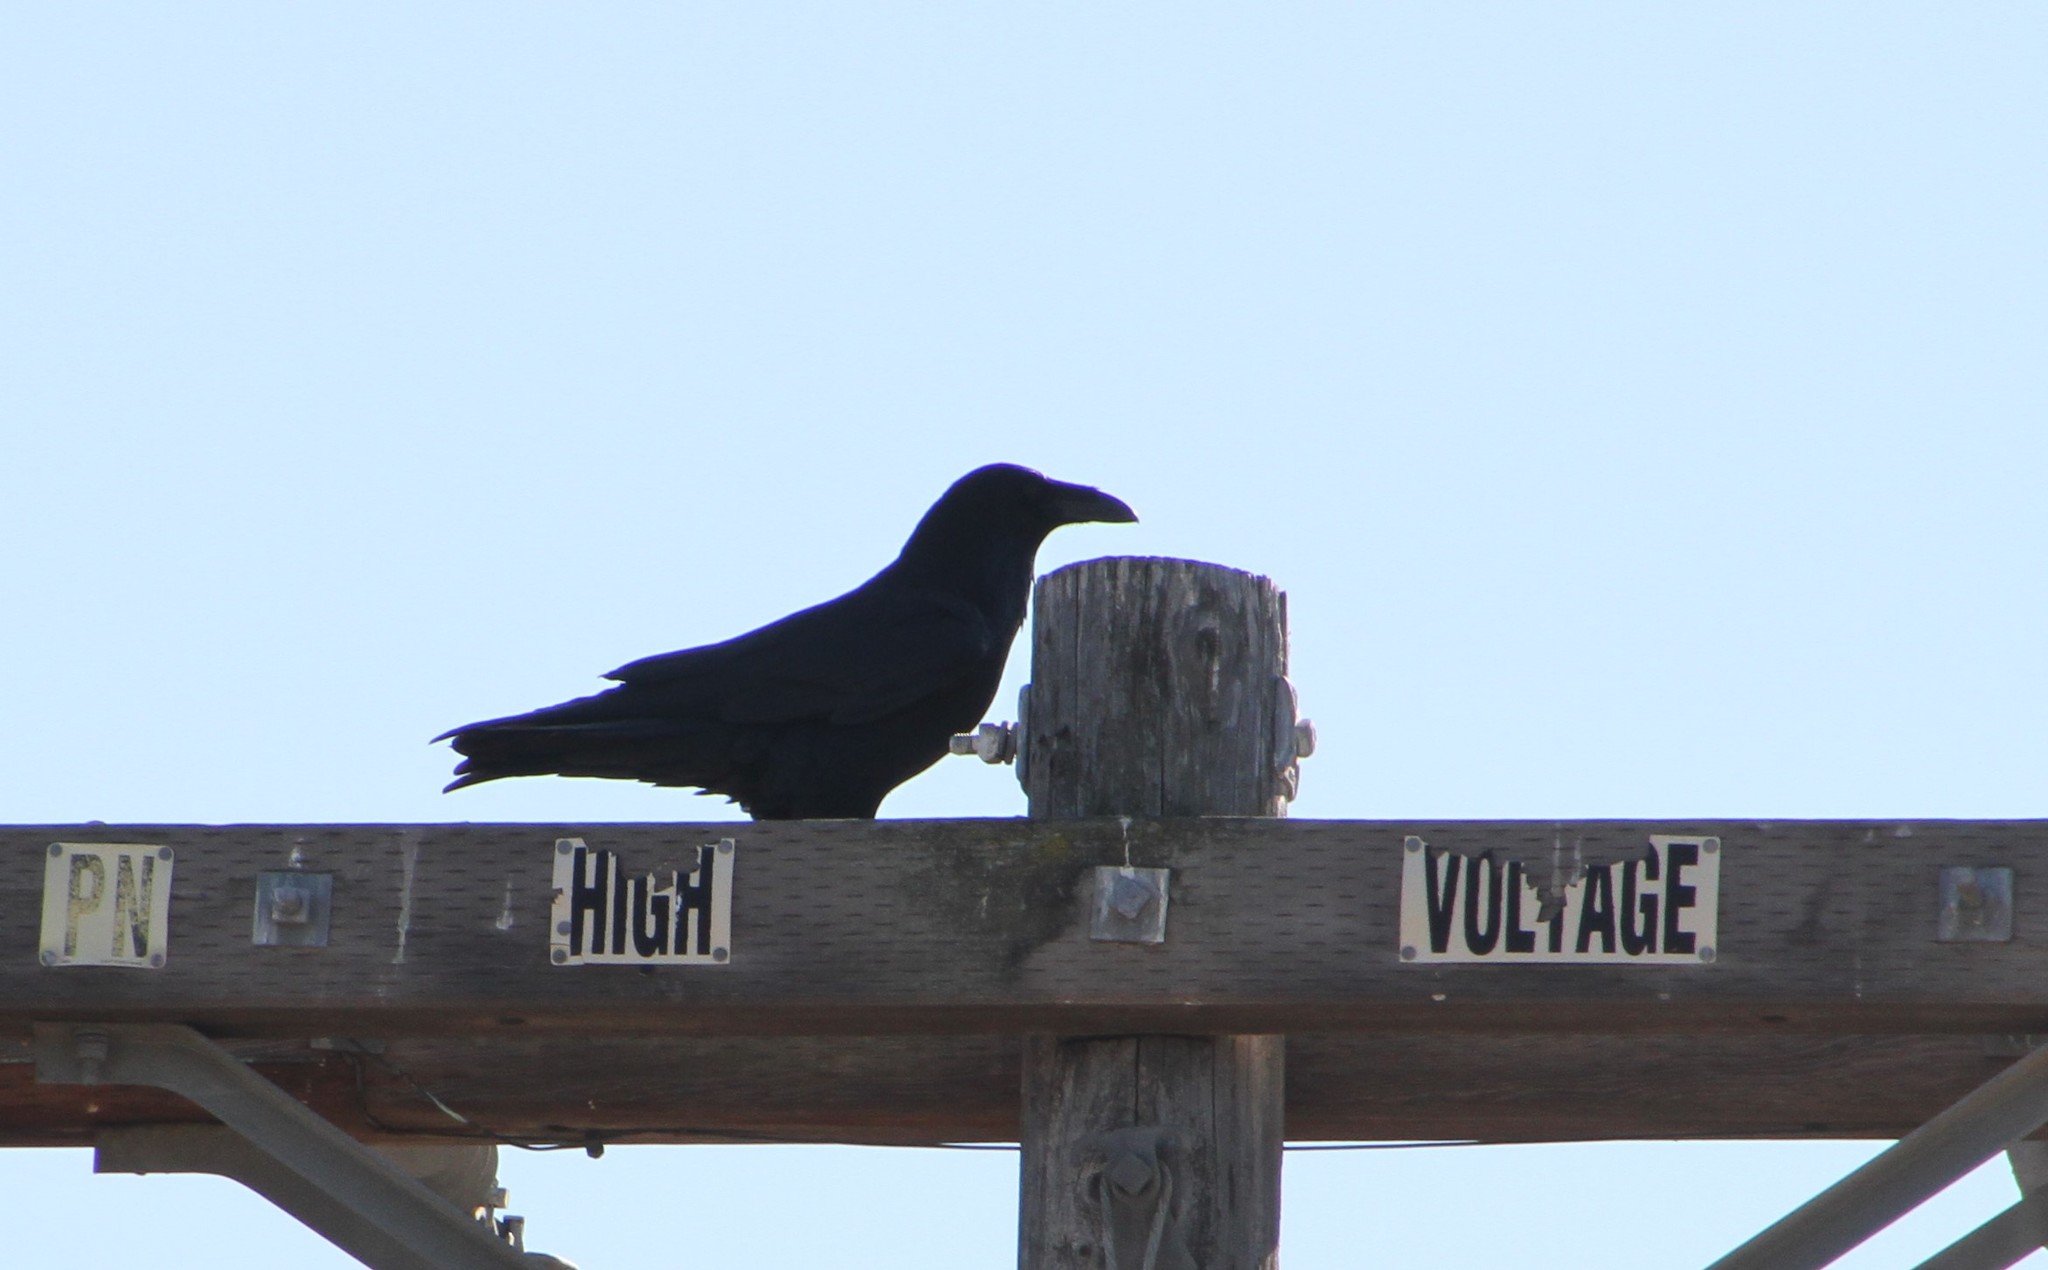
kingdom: Animalia
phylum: Chordata
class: Aves
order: Passeriformes
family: Corvidae
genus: Corvus
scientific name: Corvus corax
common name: Common raven
